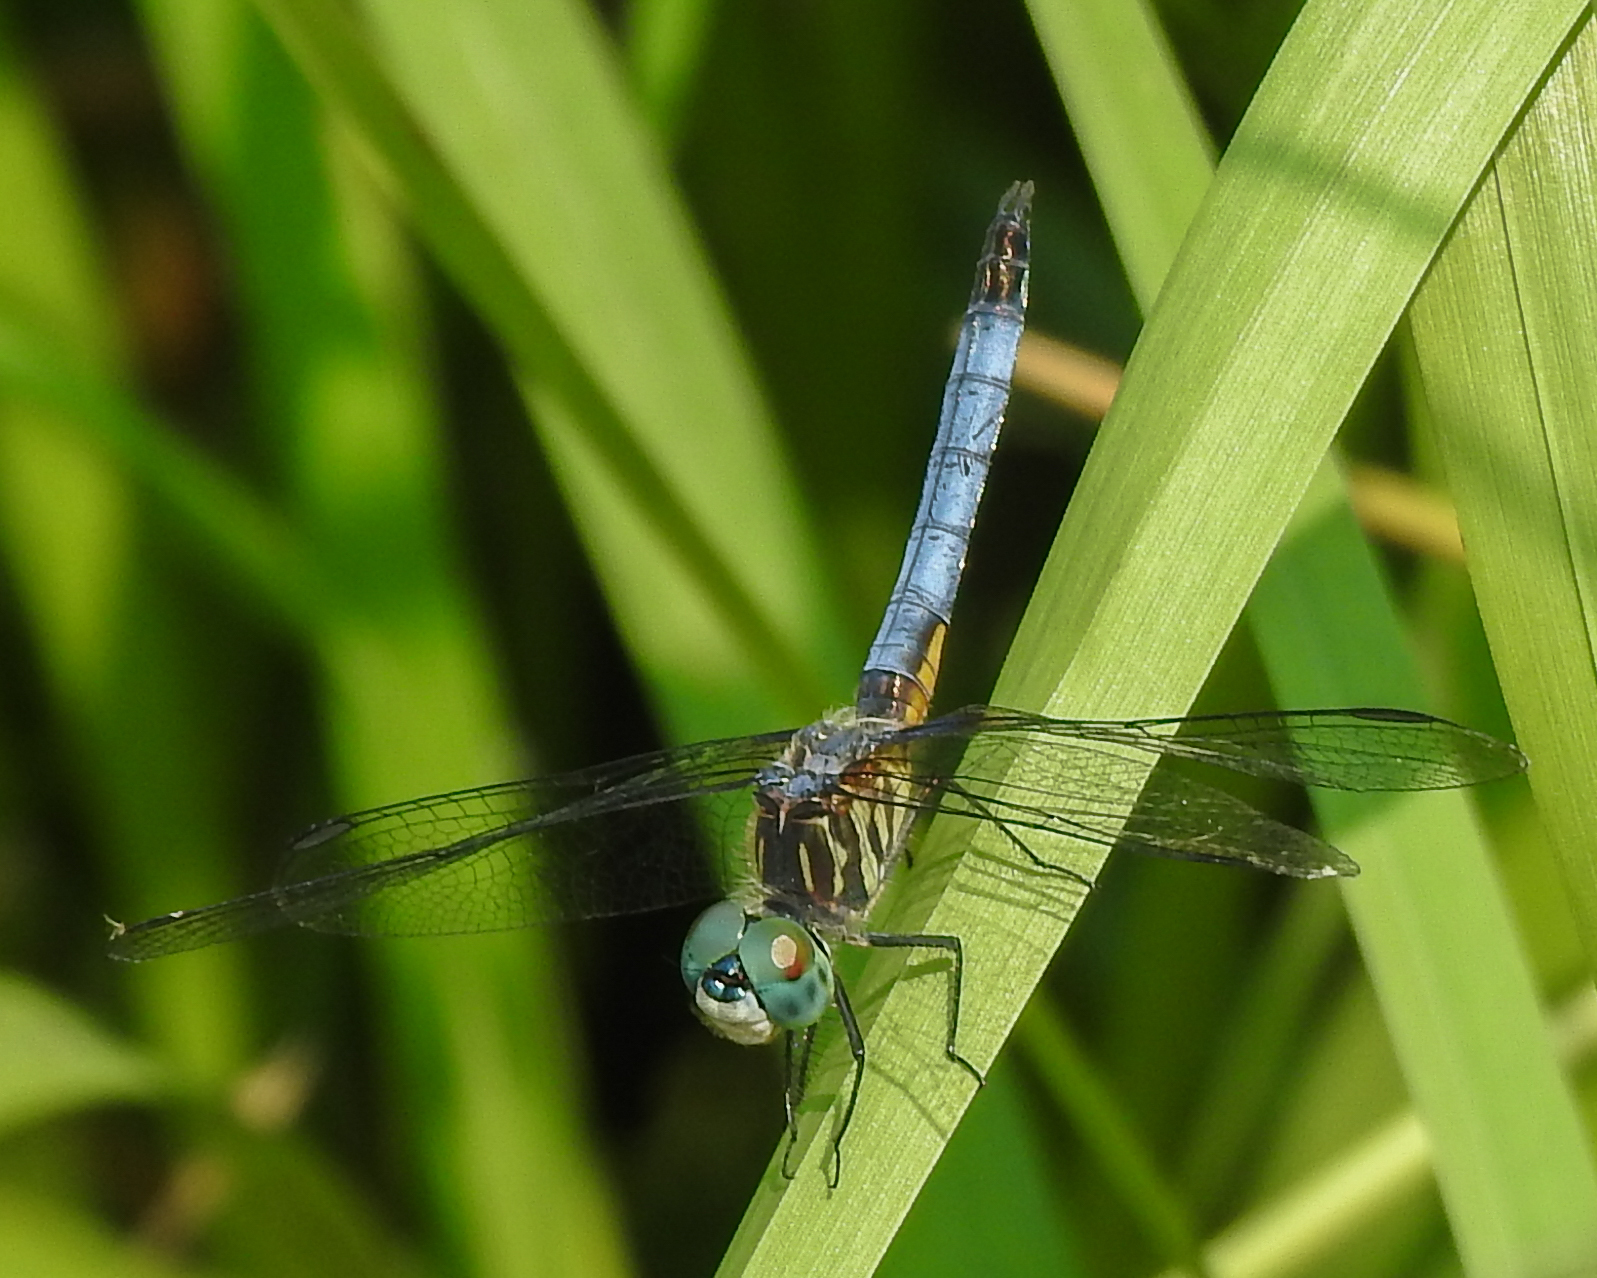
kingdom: Animalia
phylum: Arthropoda
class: Insecta
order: Odonata
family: Libellulidae
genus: Pachydiplax
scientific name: Pachydiplax longipennis
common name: Blue dasher
